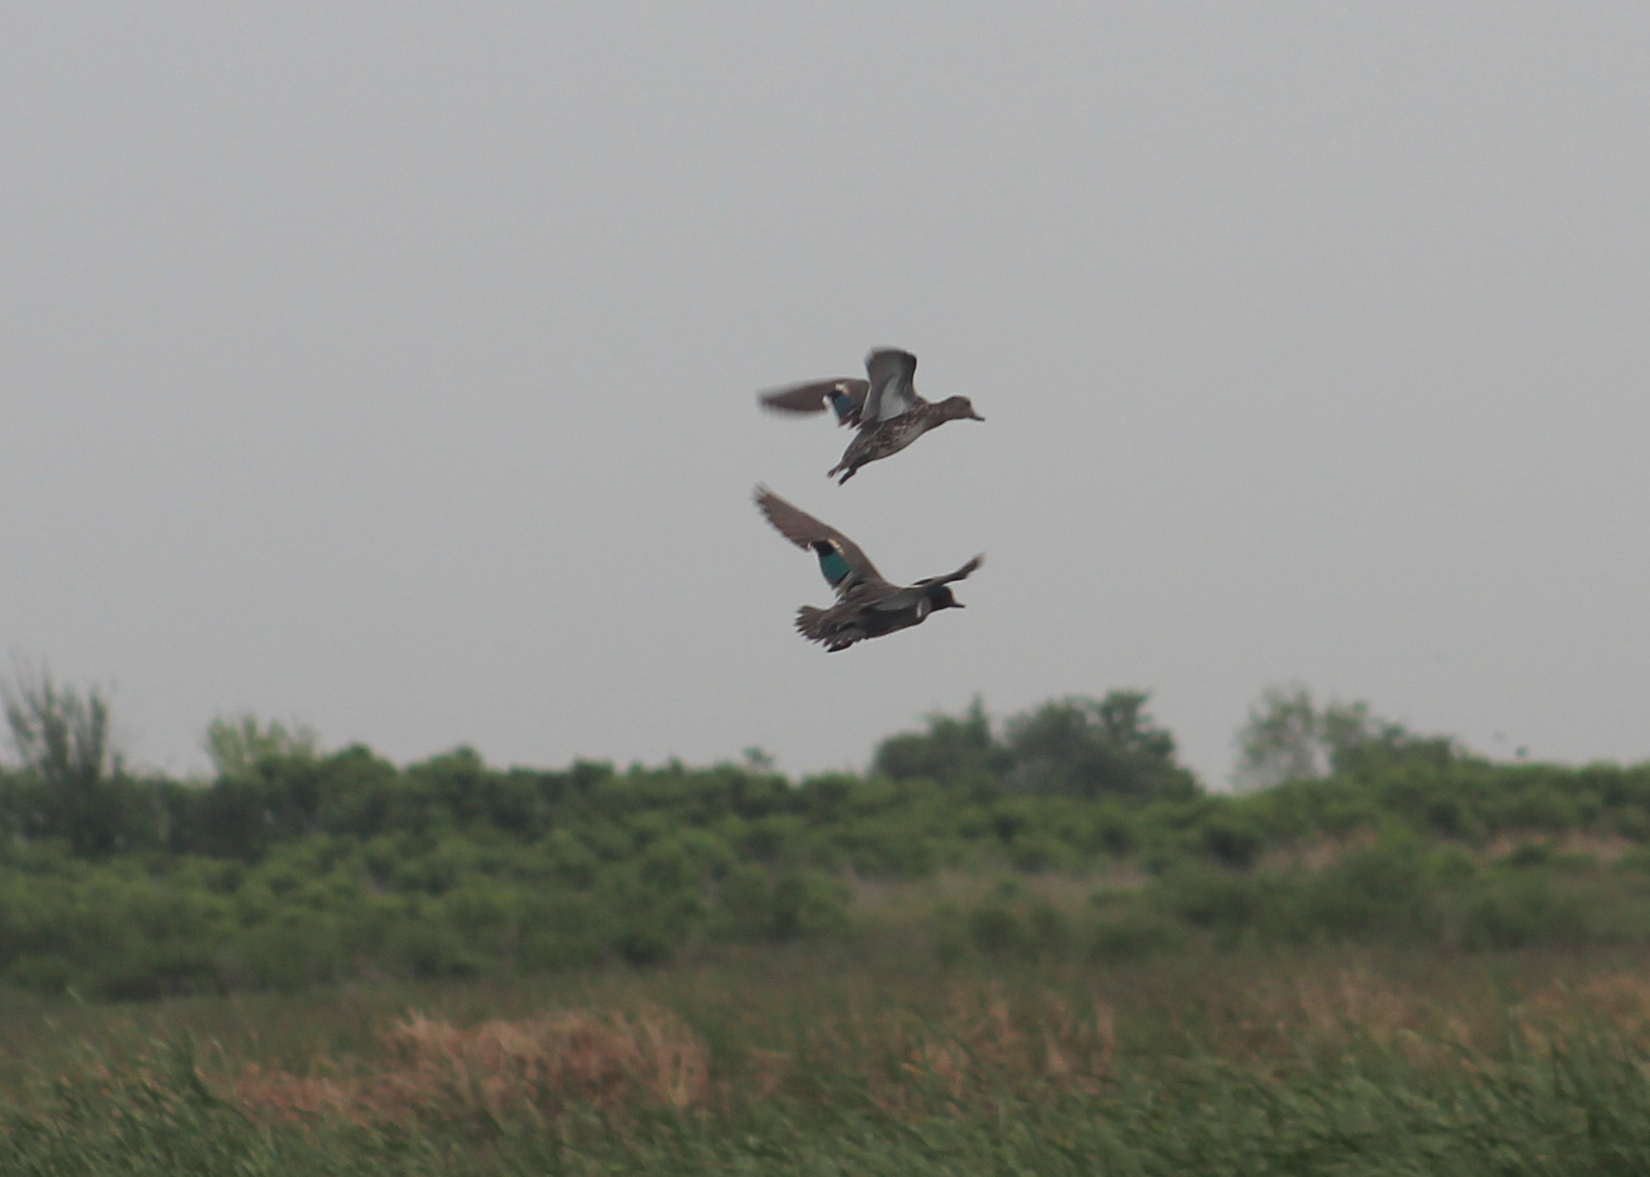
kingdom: Animalia
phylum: Chordata
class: Aves
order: Anseriformes
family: Anatidae
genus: Anas
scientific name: Anas crecca
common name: Eurasian teal
